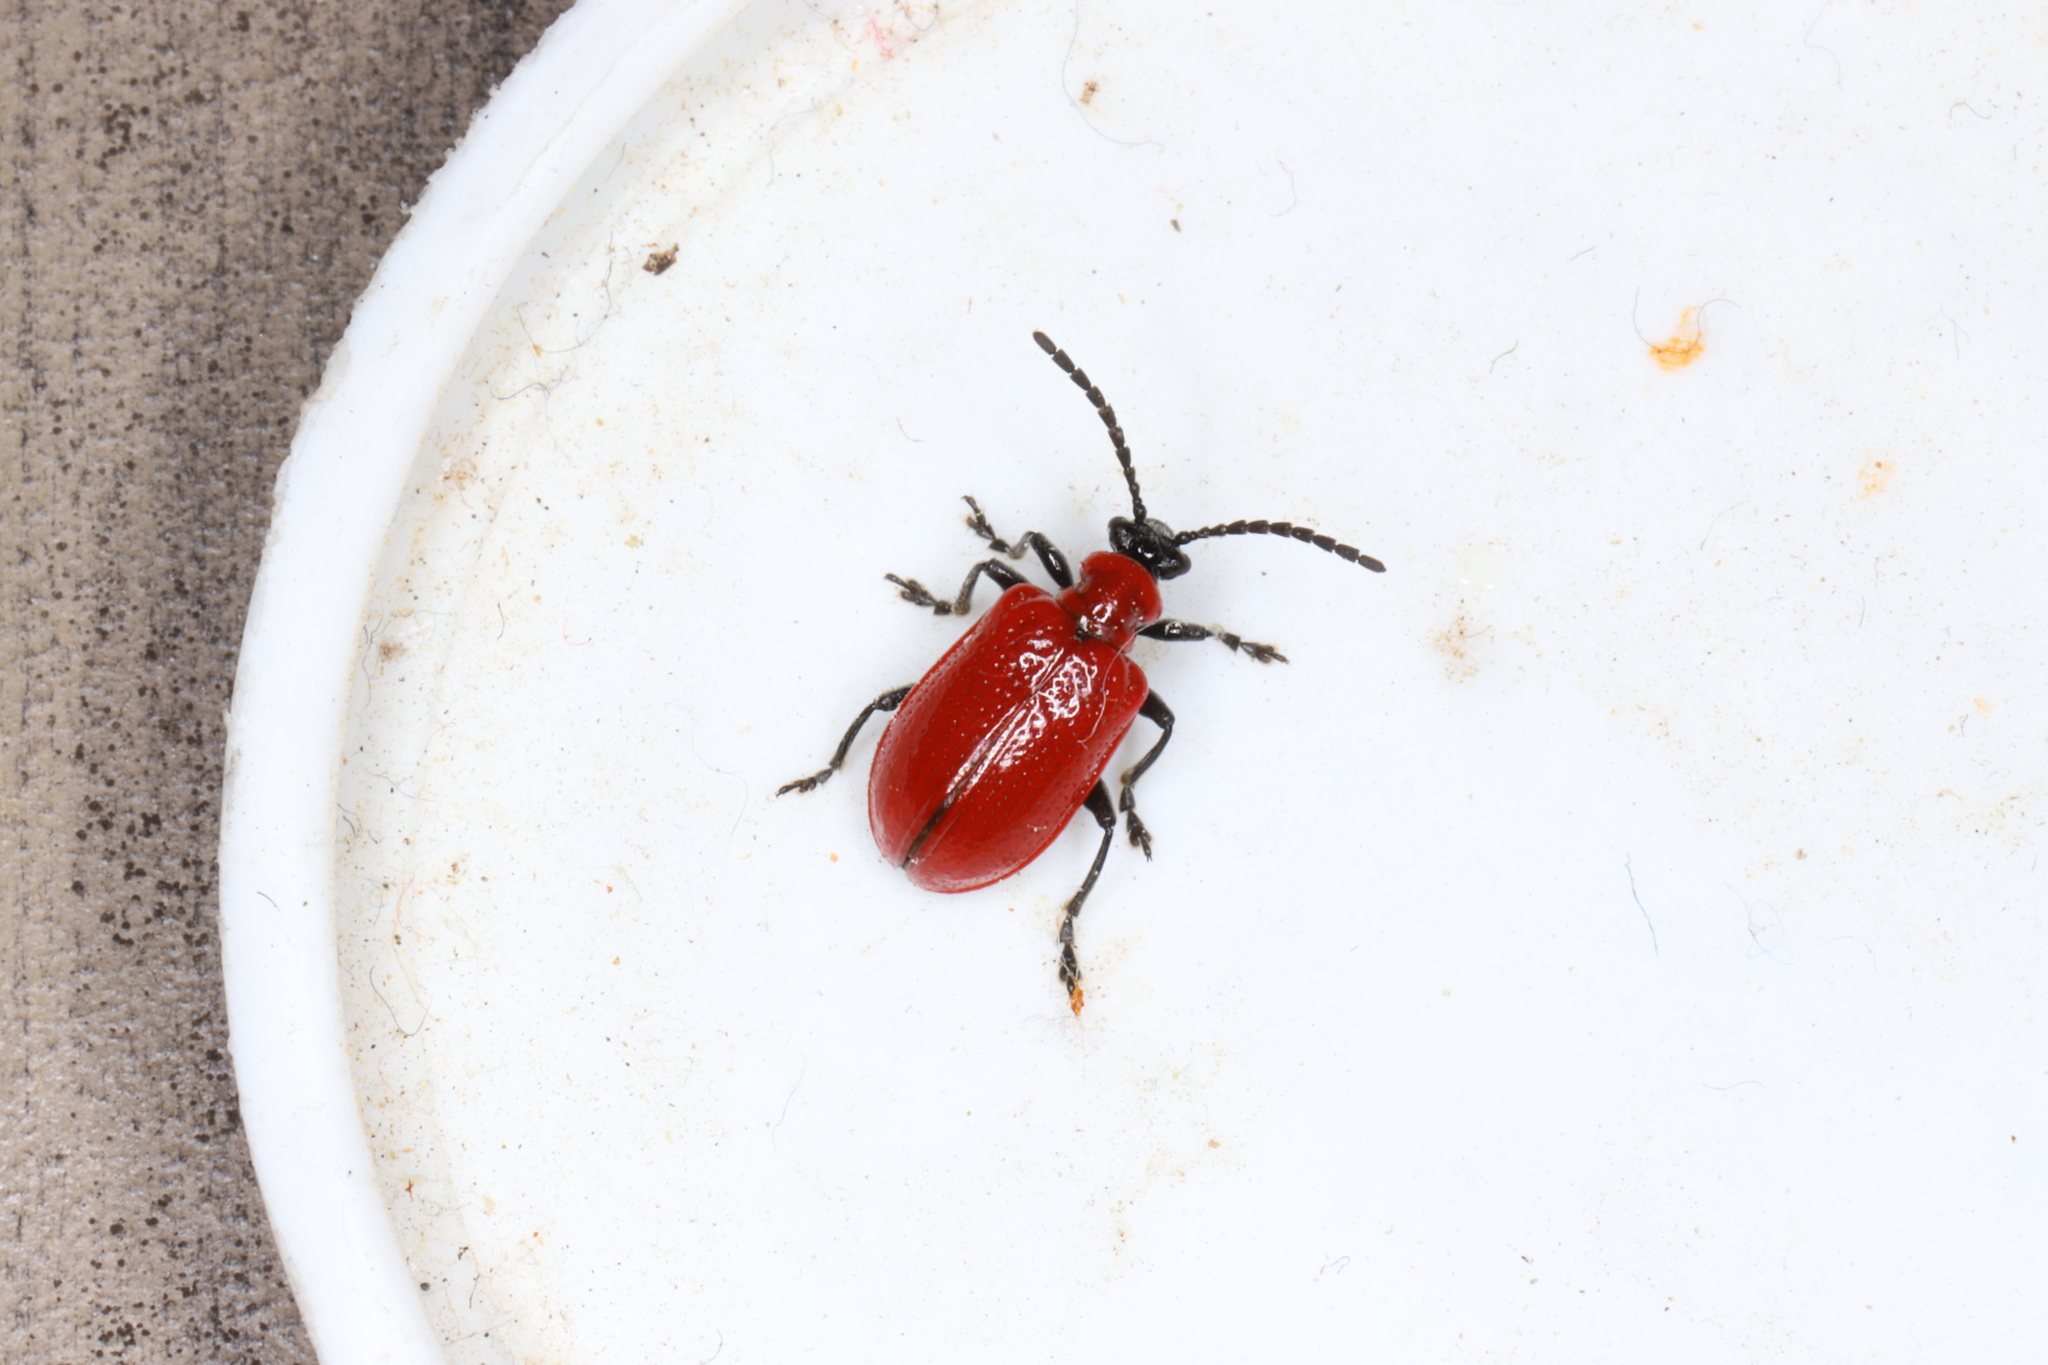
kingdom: Animalia
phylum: Arthropoda
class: Insecta
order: Coleoptera
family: Chrysomelidae
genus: Lilioceris
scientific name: Lilioceris lilii
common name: Lily beetle
